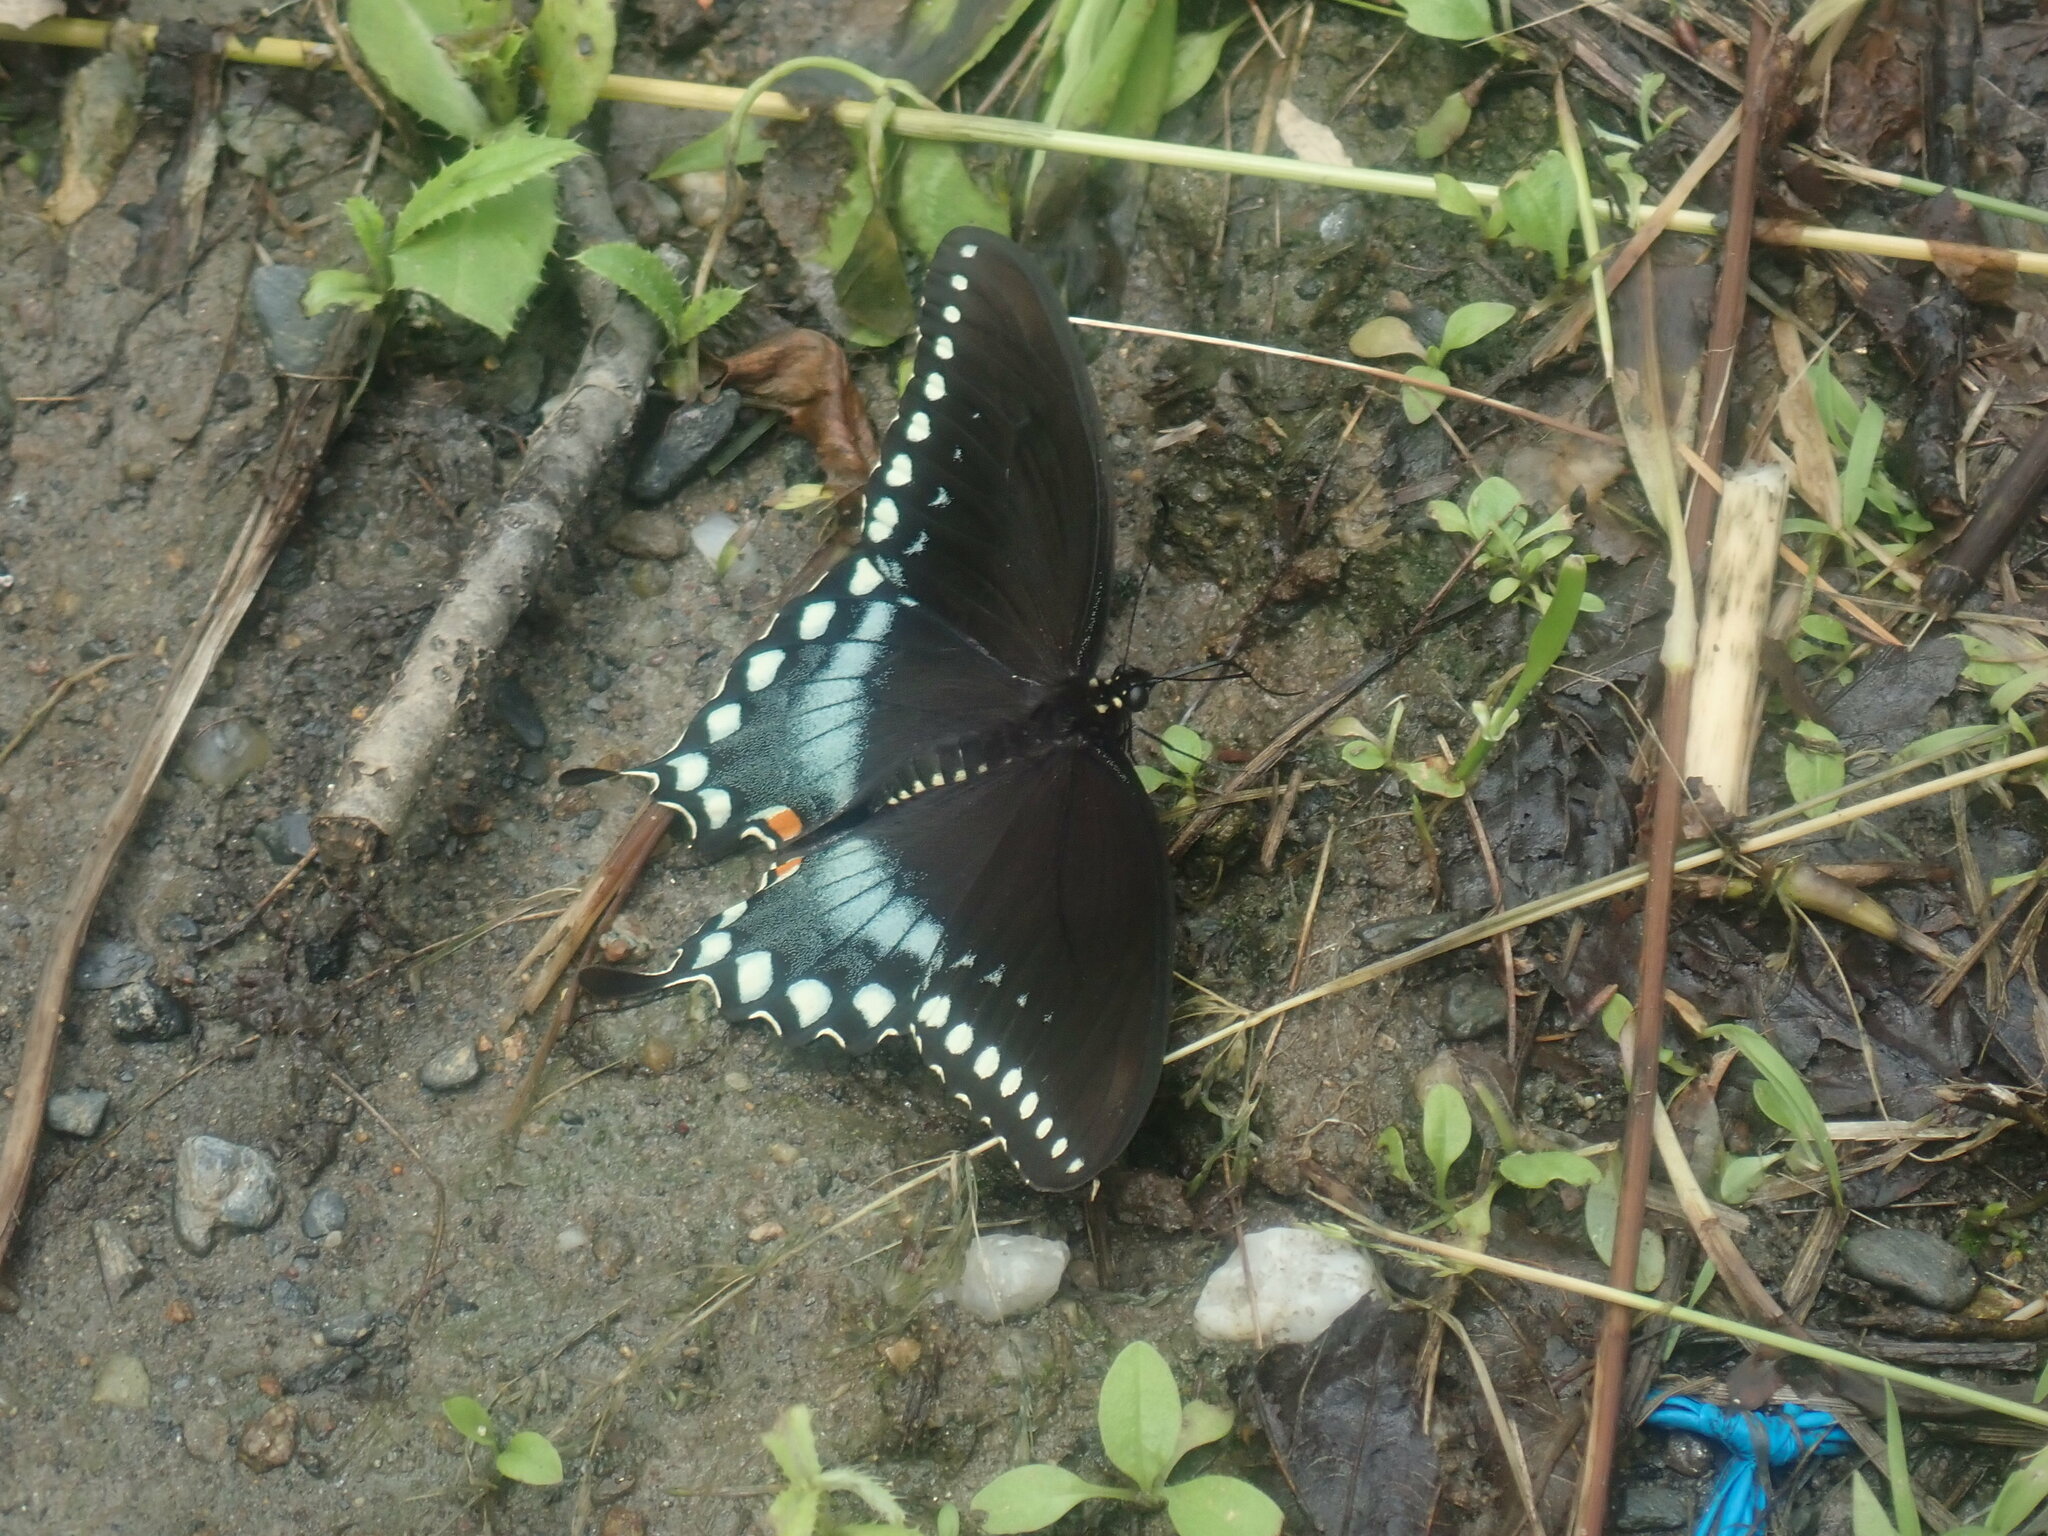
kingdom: Animalia
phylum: Arthropoda
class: Insecta
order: Lepidoptera
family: Papilionidae
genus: Papilio
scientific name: Papilio troilus
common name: Spicebush swallowtail
